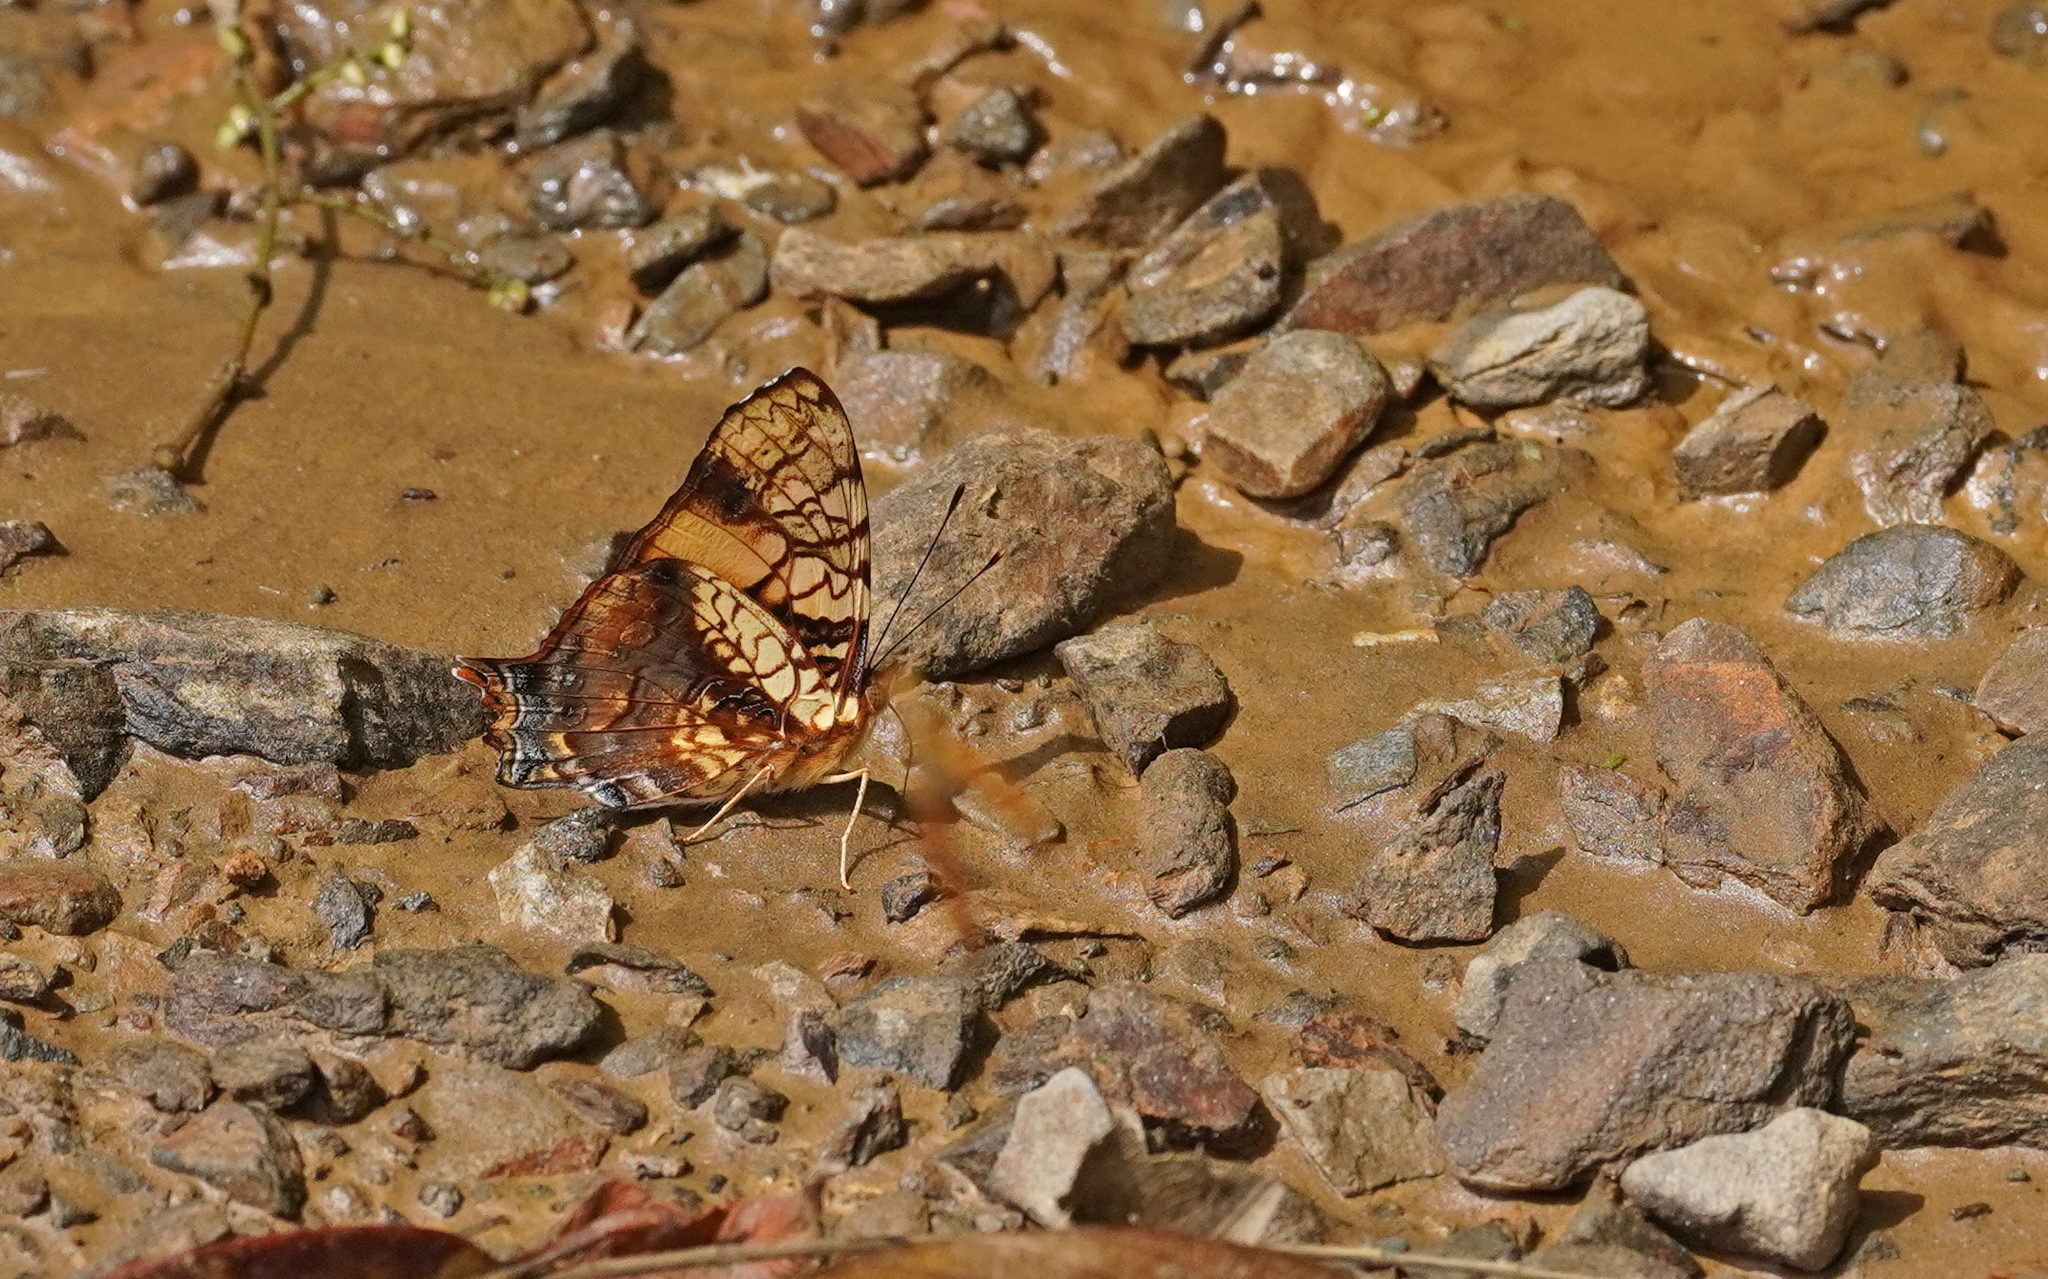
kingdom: Animalia
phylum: Arthropoda
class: Insecta
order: Lepidoptera
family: Nymphalidae
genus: Hypanartia
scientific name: Hypanartia lethe
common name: Orange mapwing
